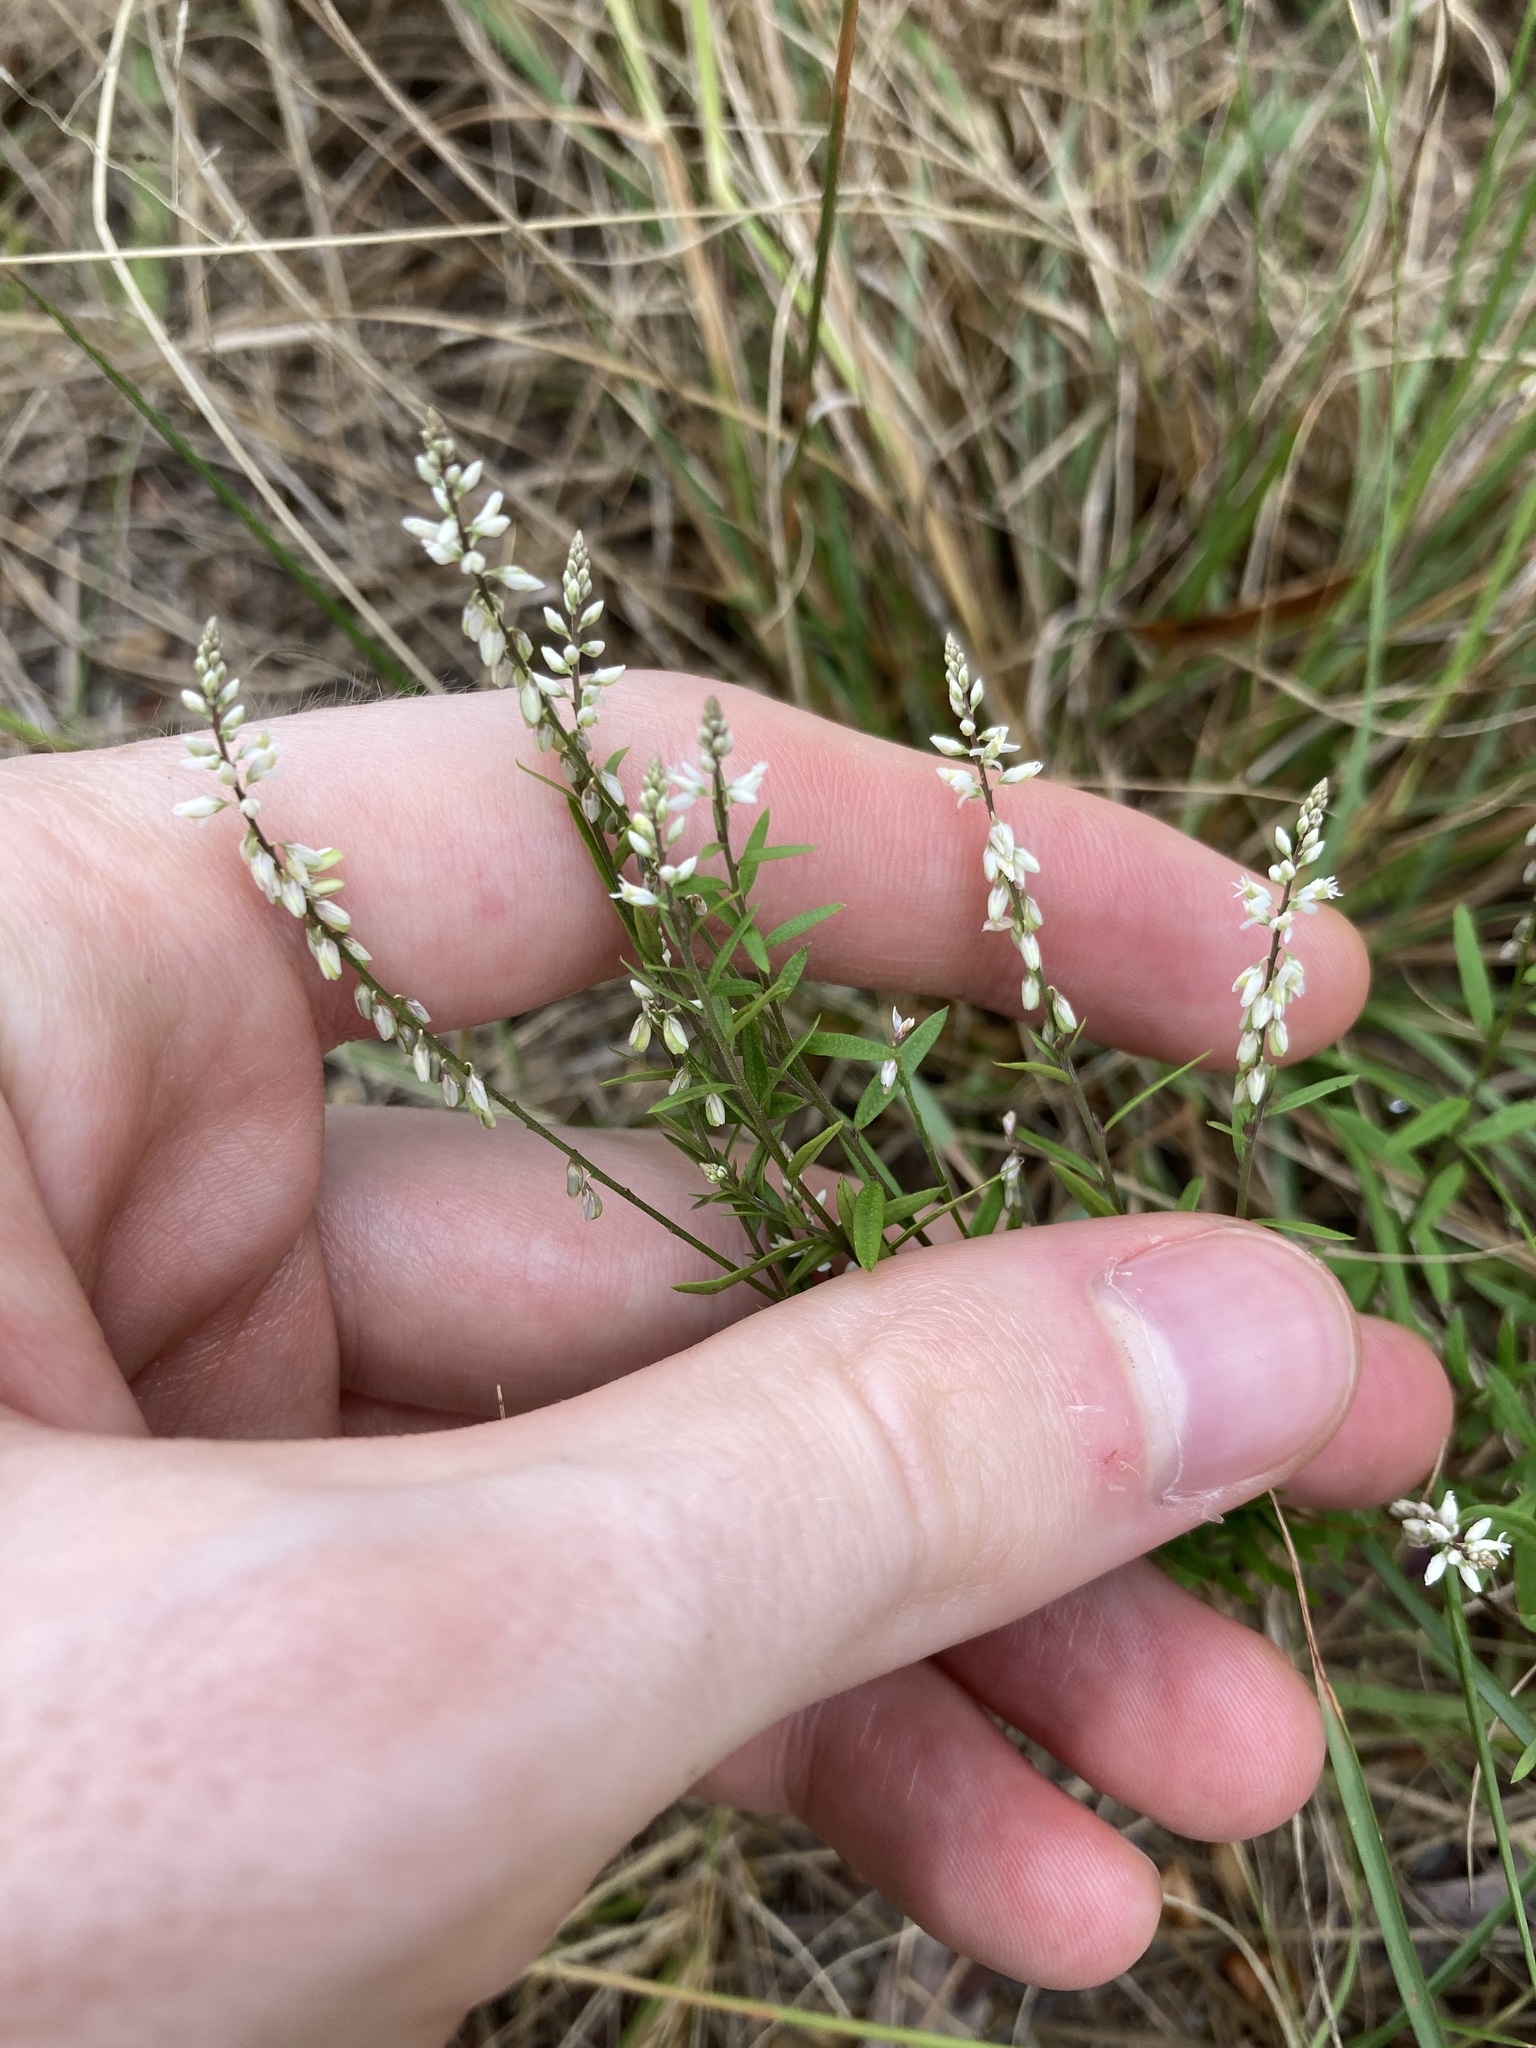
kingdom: Plantae
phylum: Tracheophyta
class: Magnoliopsida
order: Fabales
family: Polygalaceae
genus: Polygala
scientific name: Polygala paniculata
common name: Orosne
